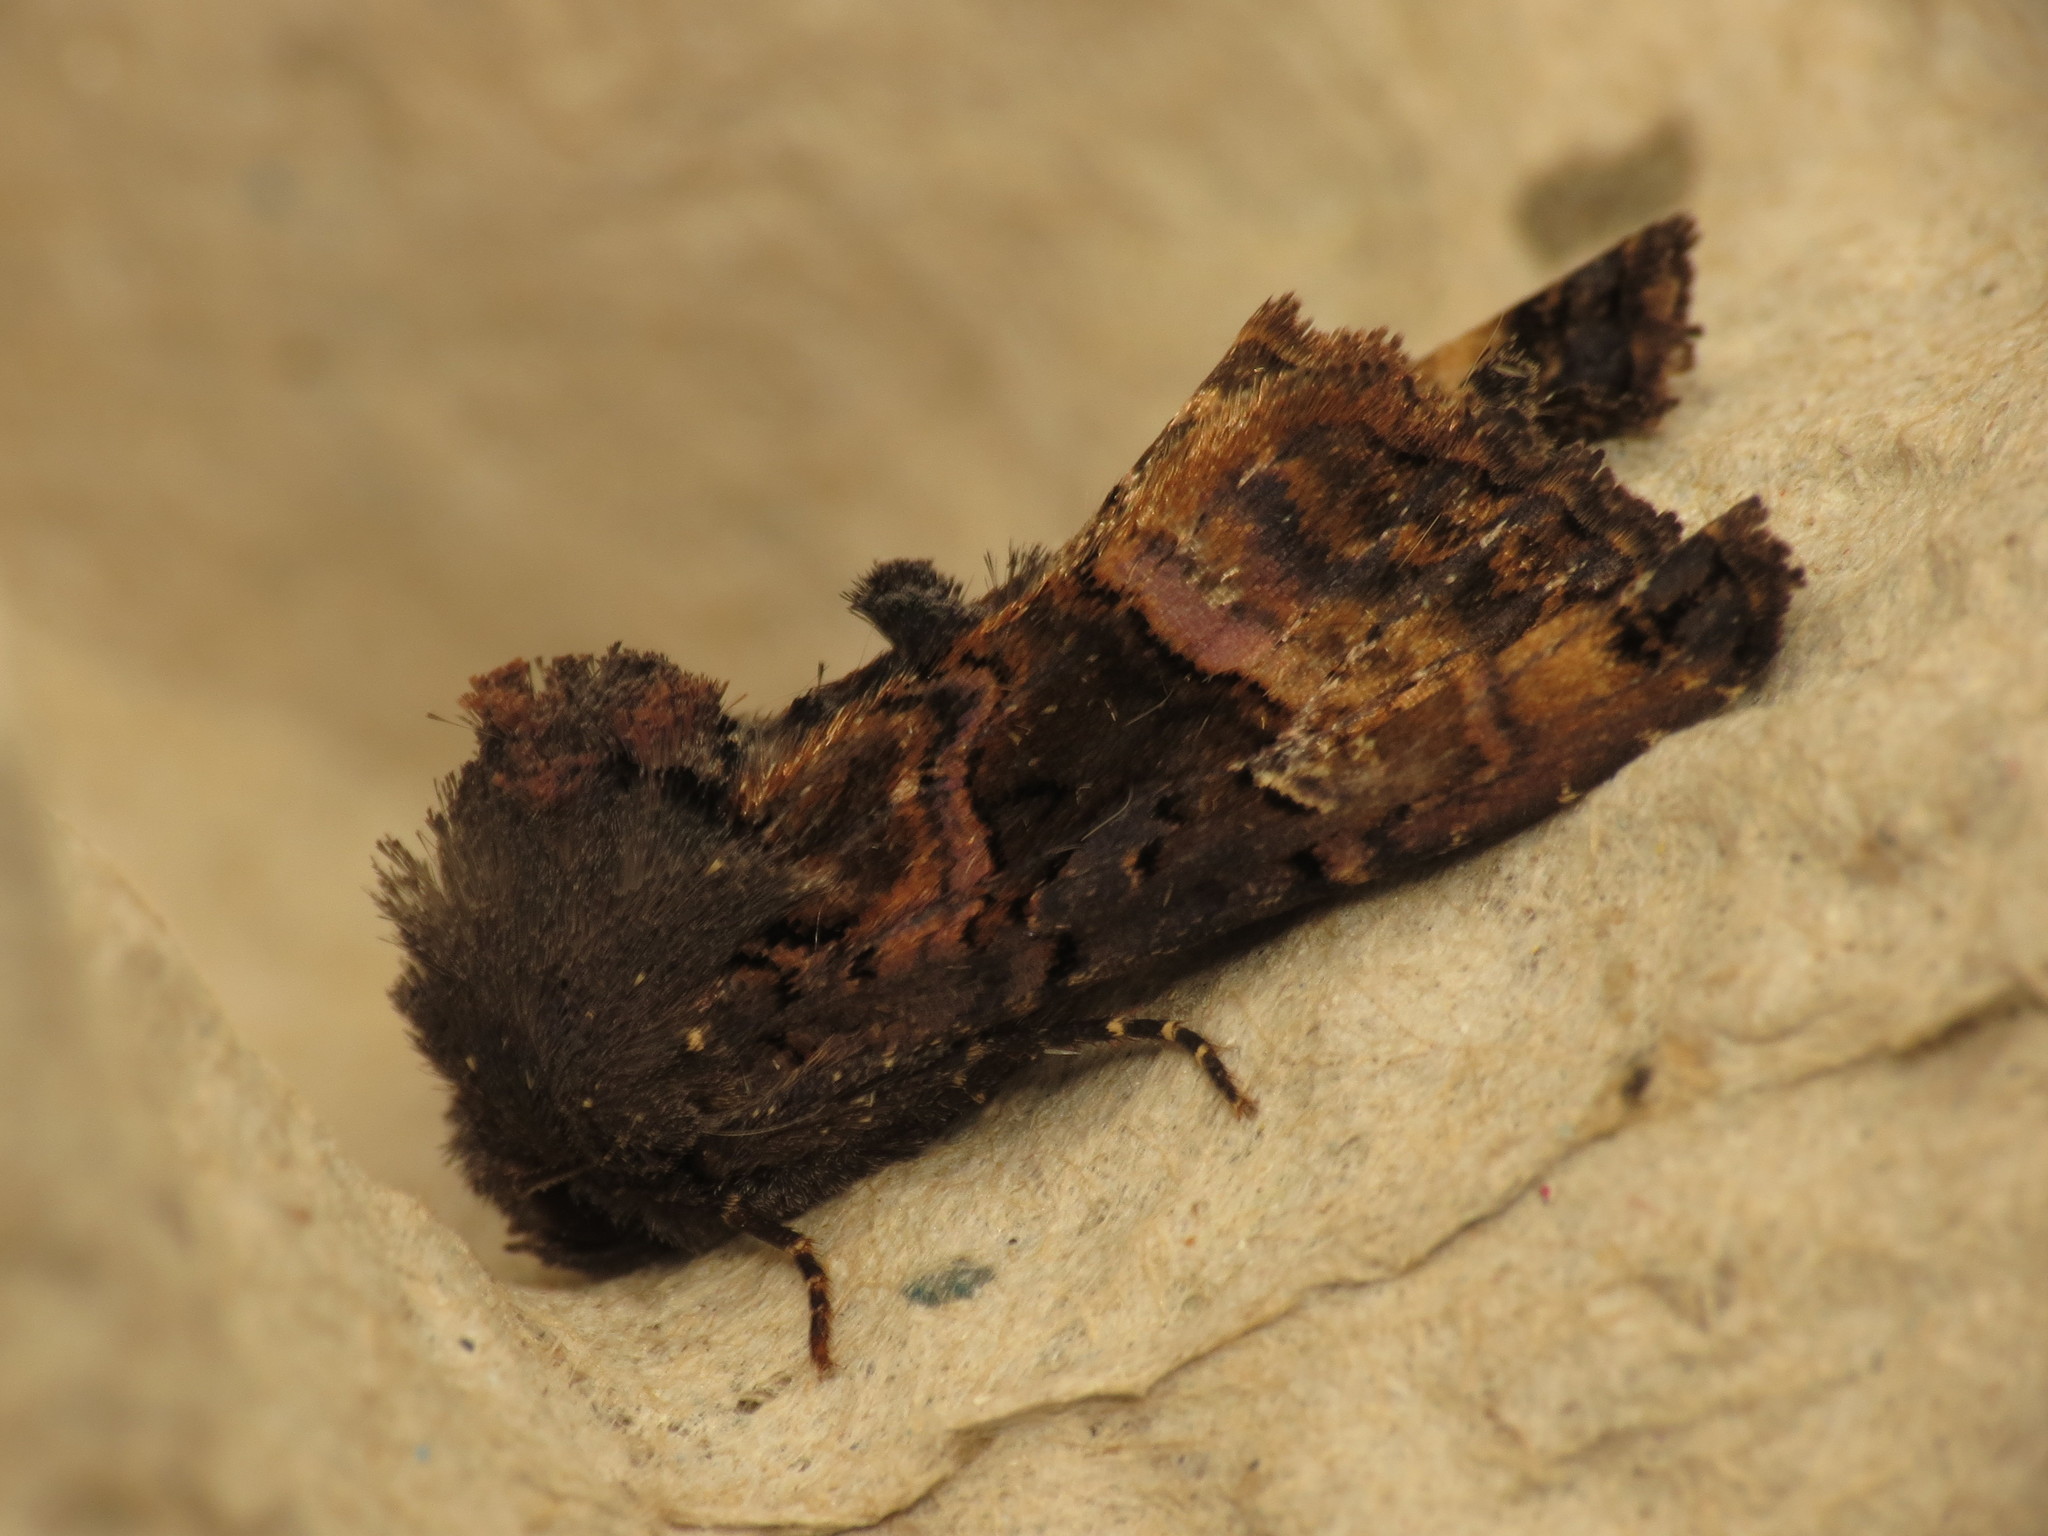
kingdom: Animalia
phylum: Arthropoda
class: Insecta
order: Lepidoptera
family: Noctuidae
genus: Euplexia
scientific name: Euplexia lucipara
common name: Small angle shades
